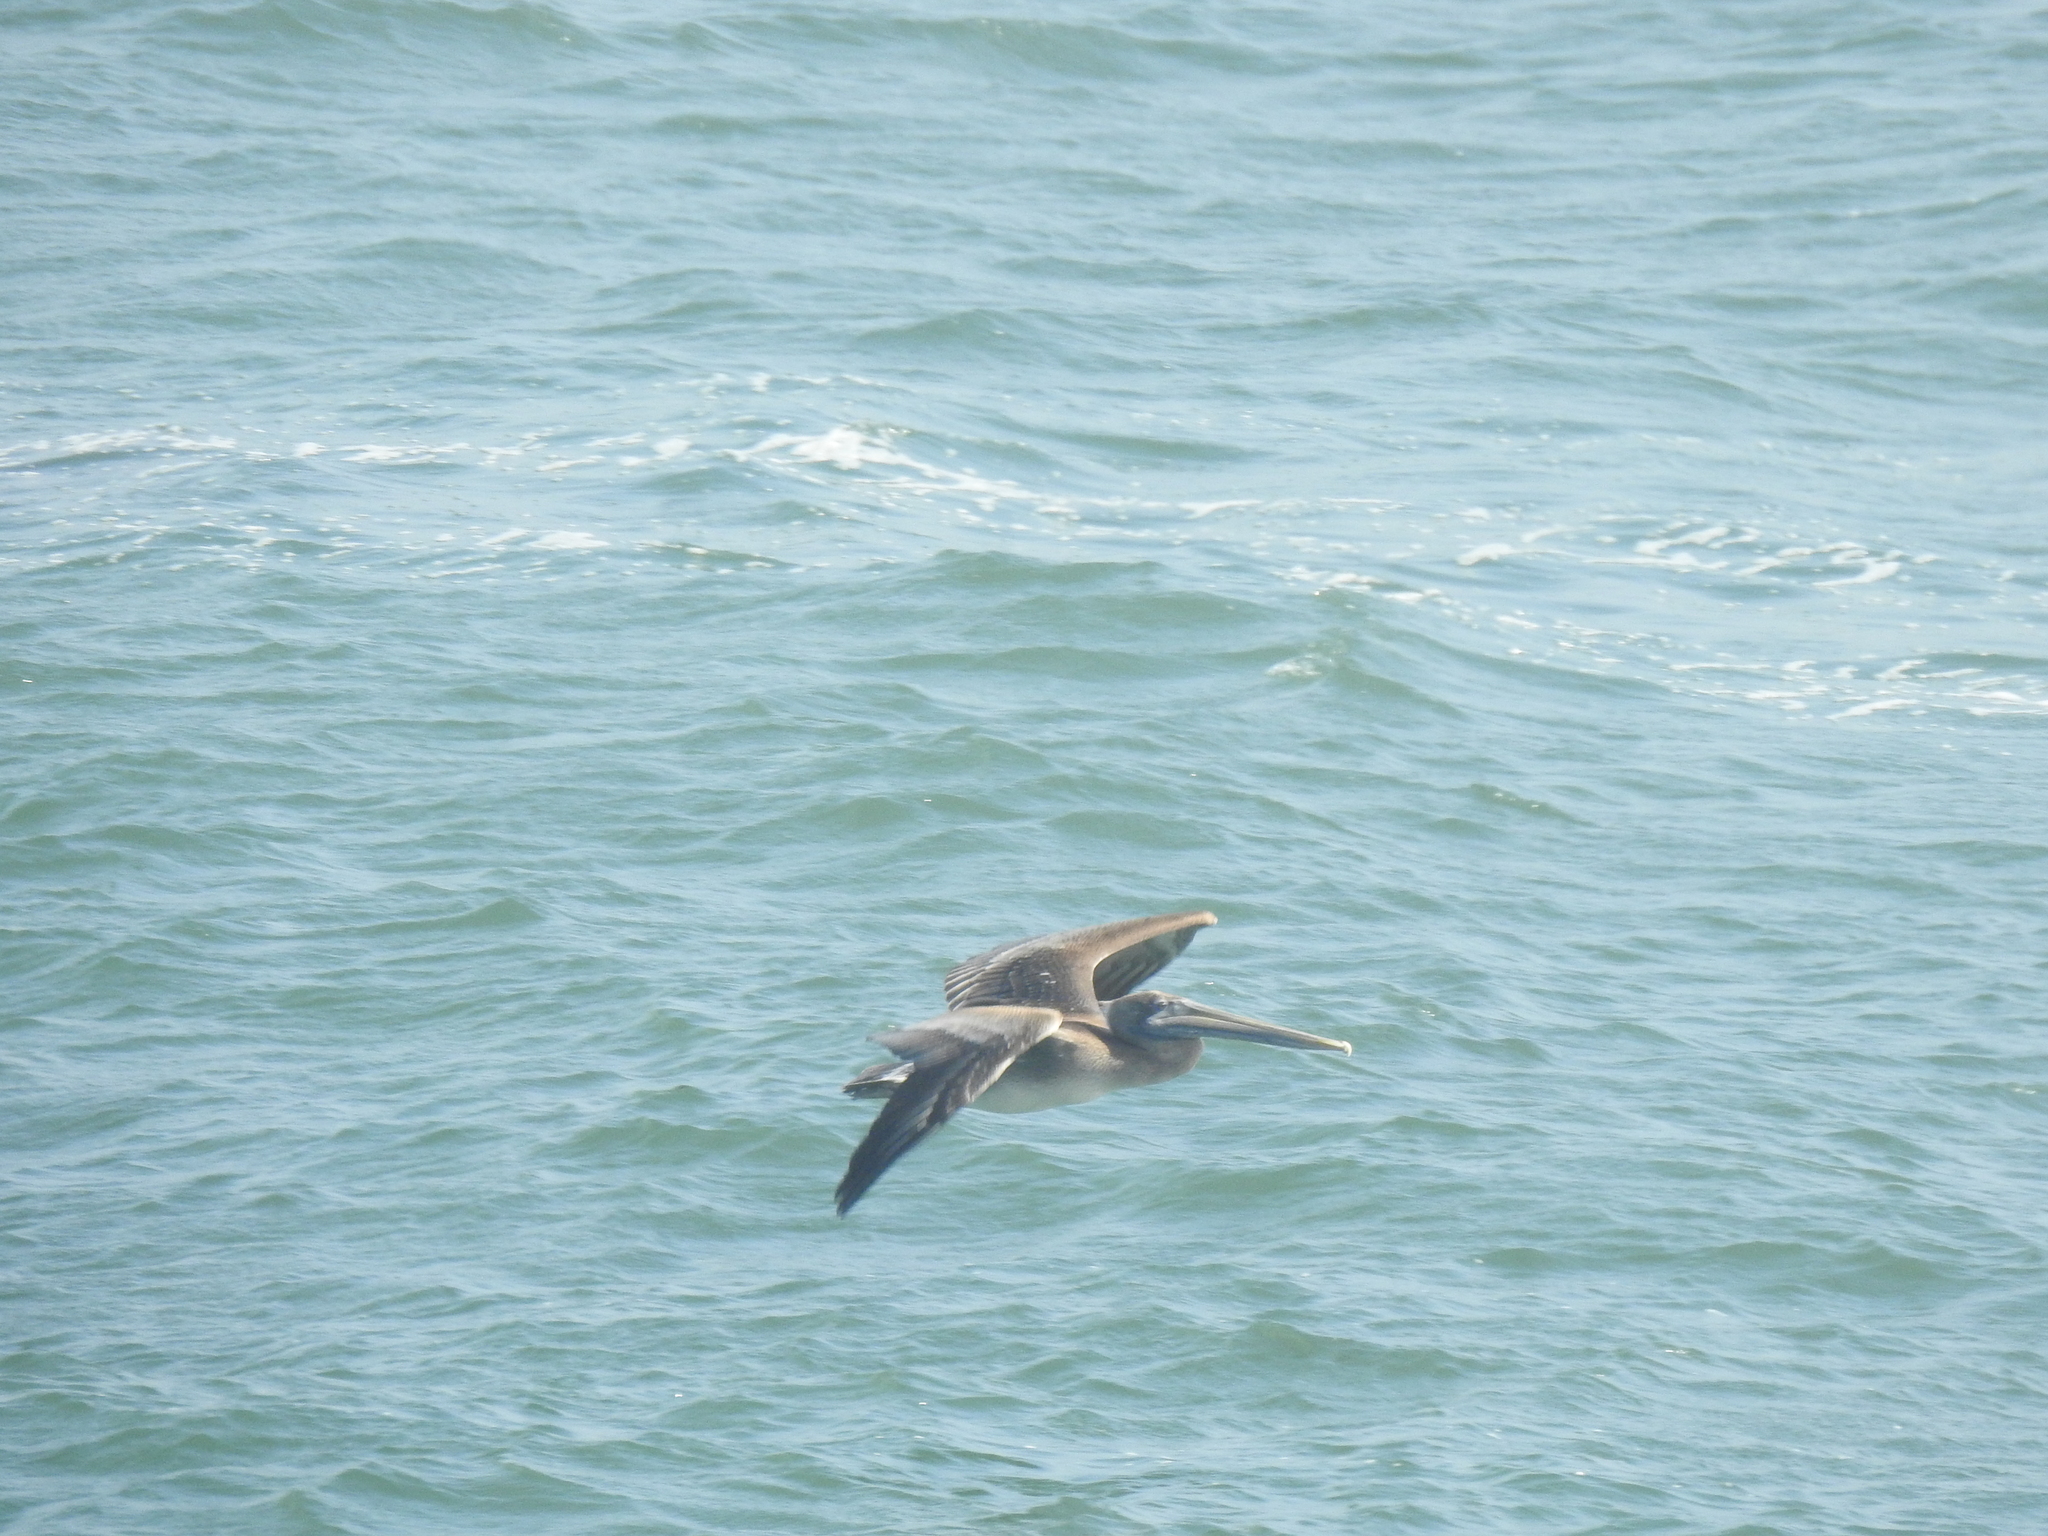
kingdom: Animalia
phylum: Chordata
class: Aves
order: Pelecaniformes
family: Pelecanidae
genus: Pelecanus
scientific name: Pelecanus occidentalis
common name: Brown pelican
